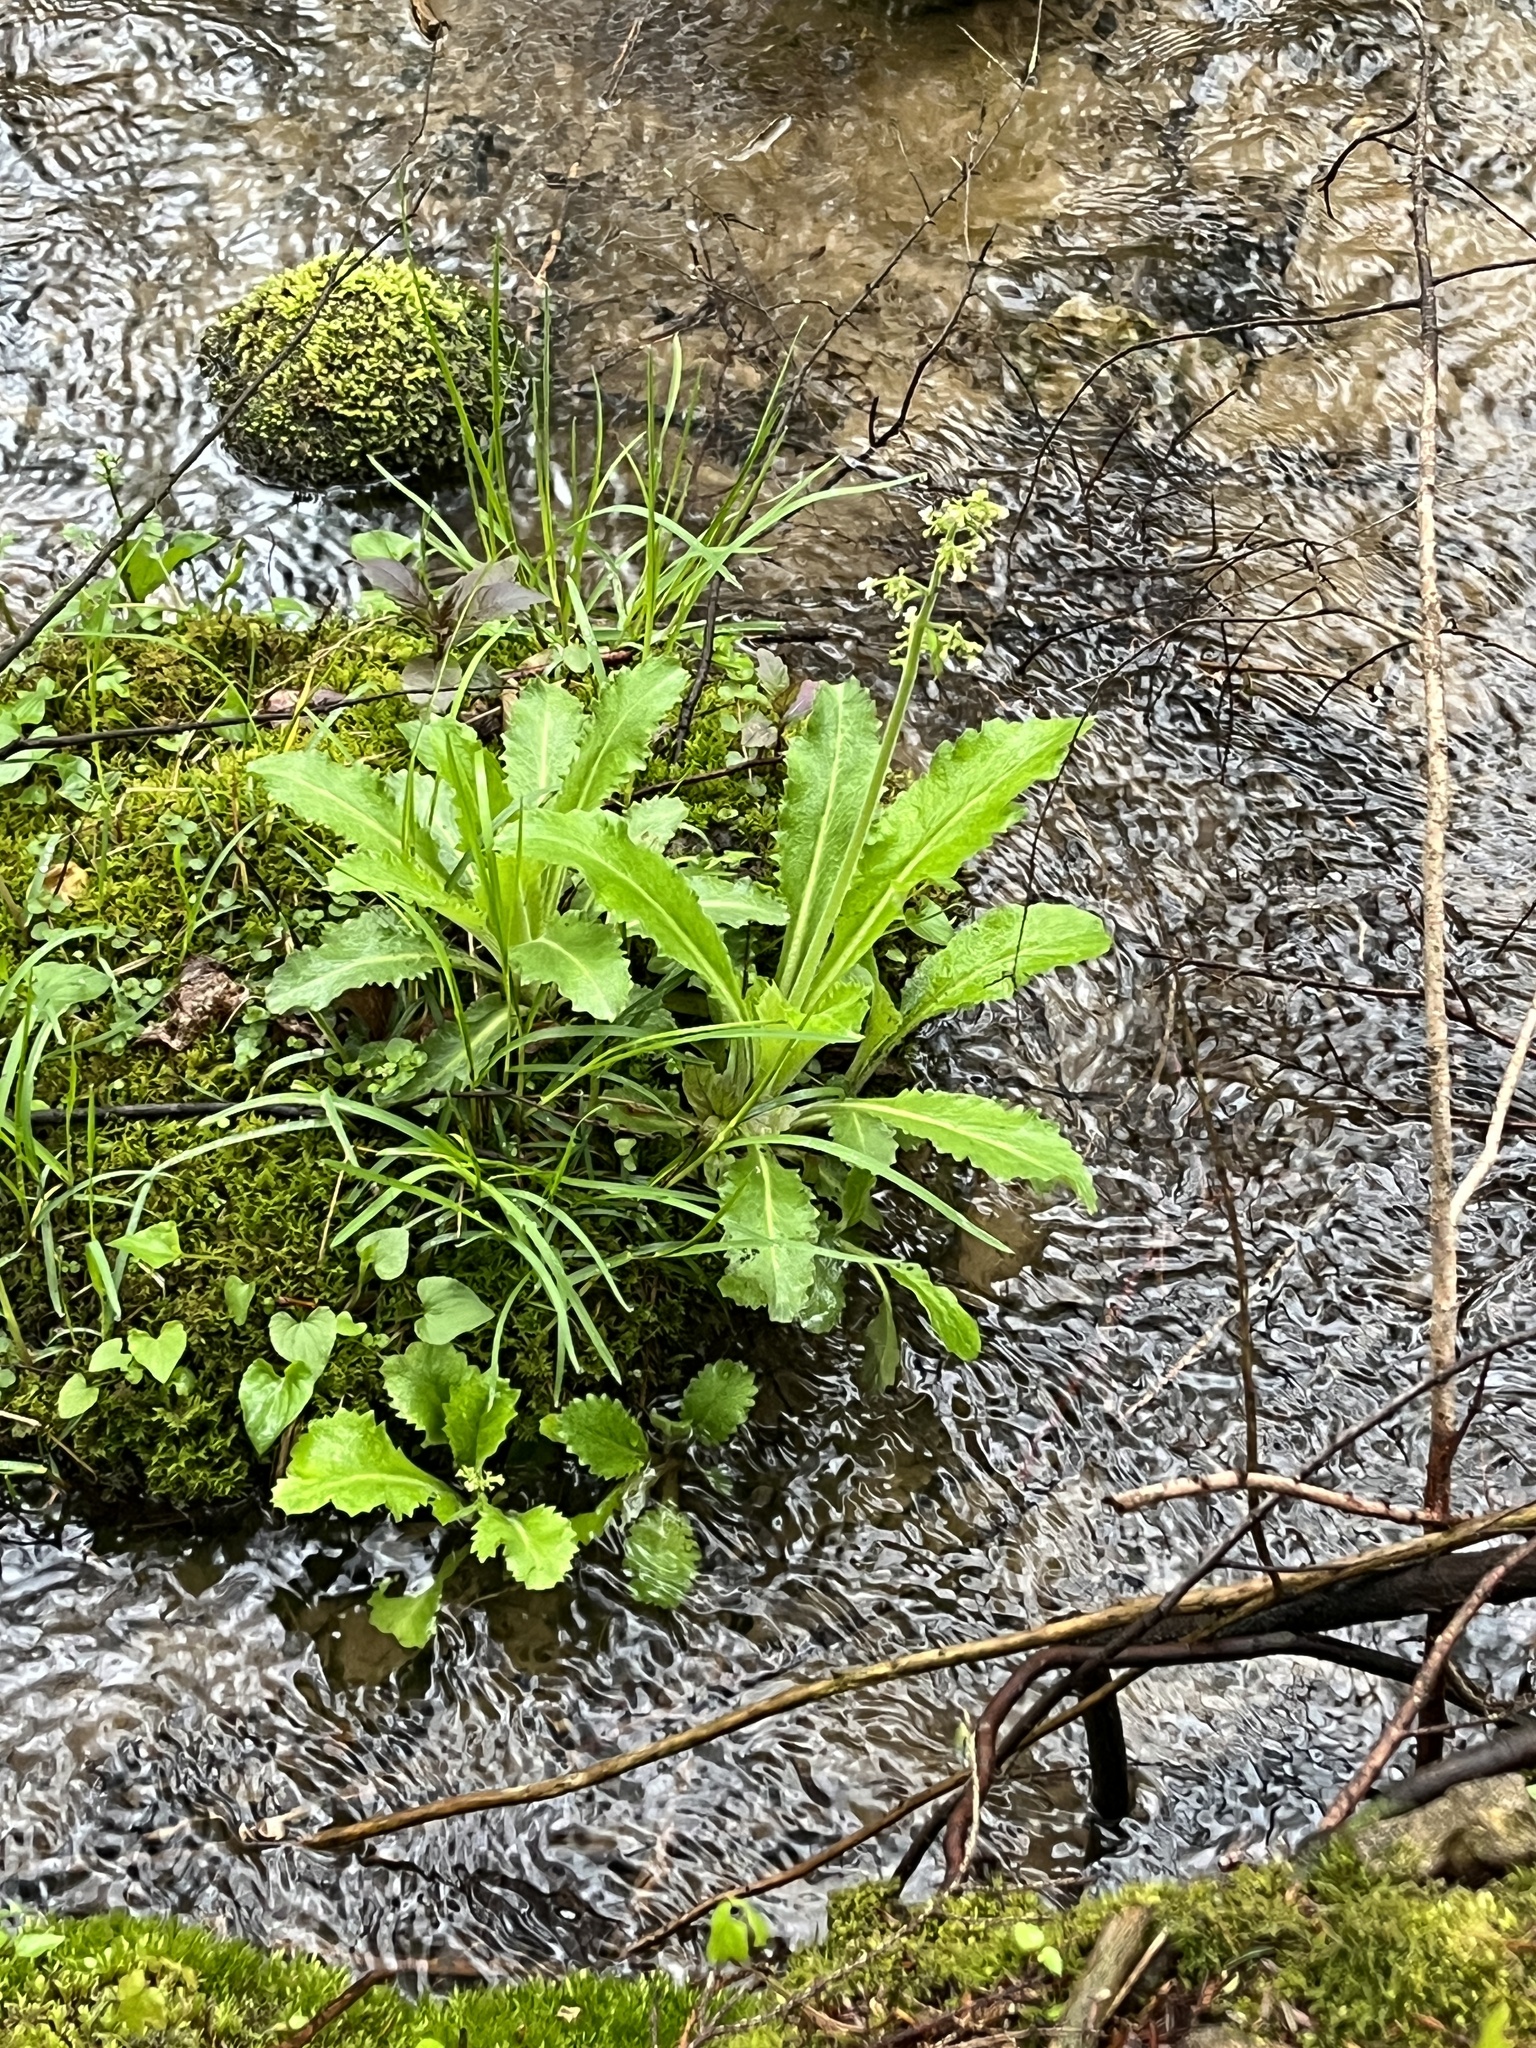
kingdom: Plantae
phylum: Tracheophyta
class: Magnoliopsida
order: Saxifragales
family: Saxifragaceae
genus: Micranthes
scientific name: Micranthes micranthidifolia
